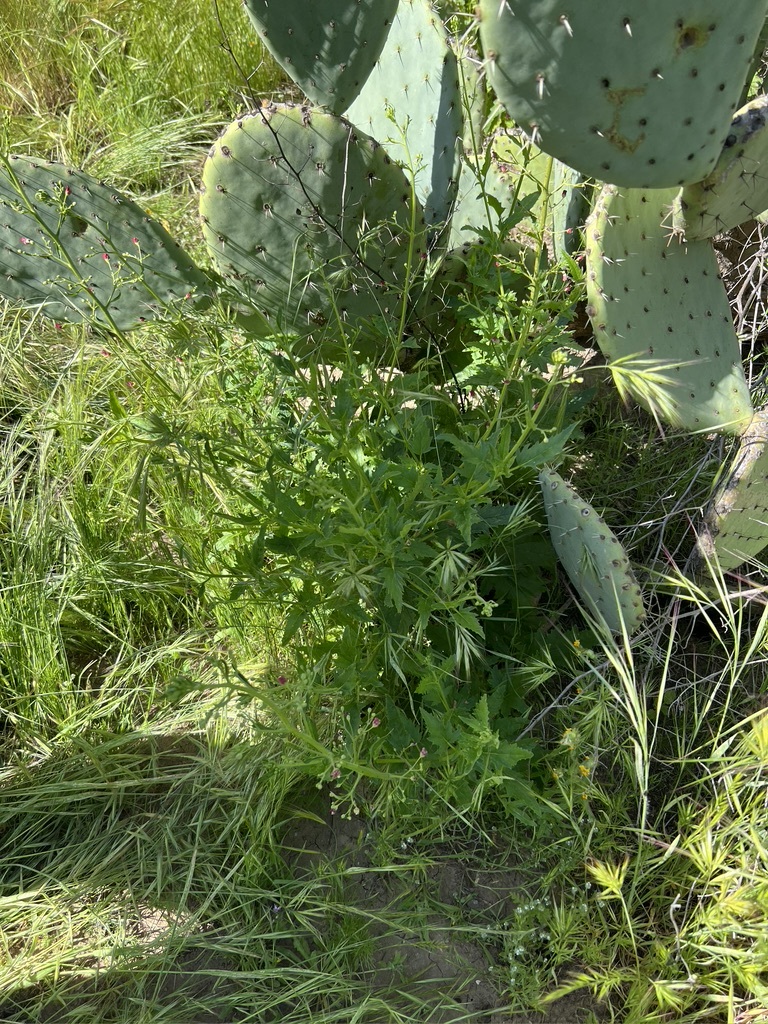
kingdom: Plantae
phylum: Tracheophyta
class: Magnoliopsida
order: Lamiales
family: Scrophulariaceae
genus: Scrophularia
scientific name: Scrophularia californica
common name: California figwort
